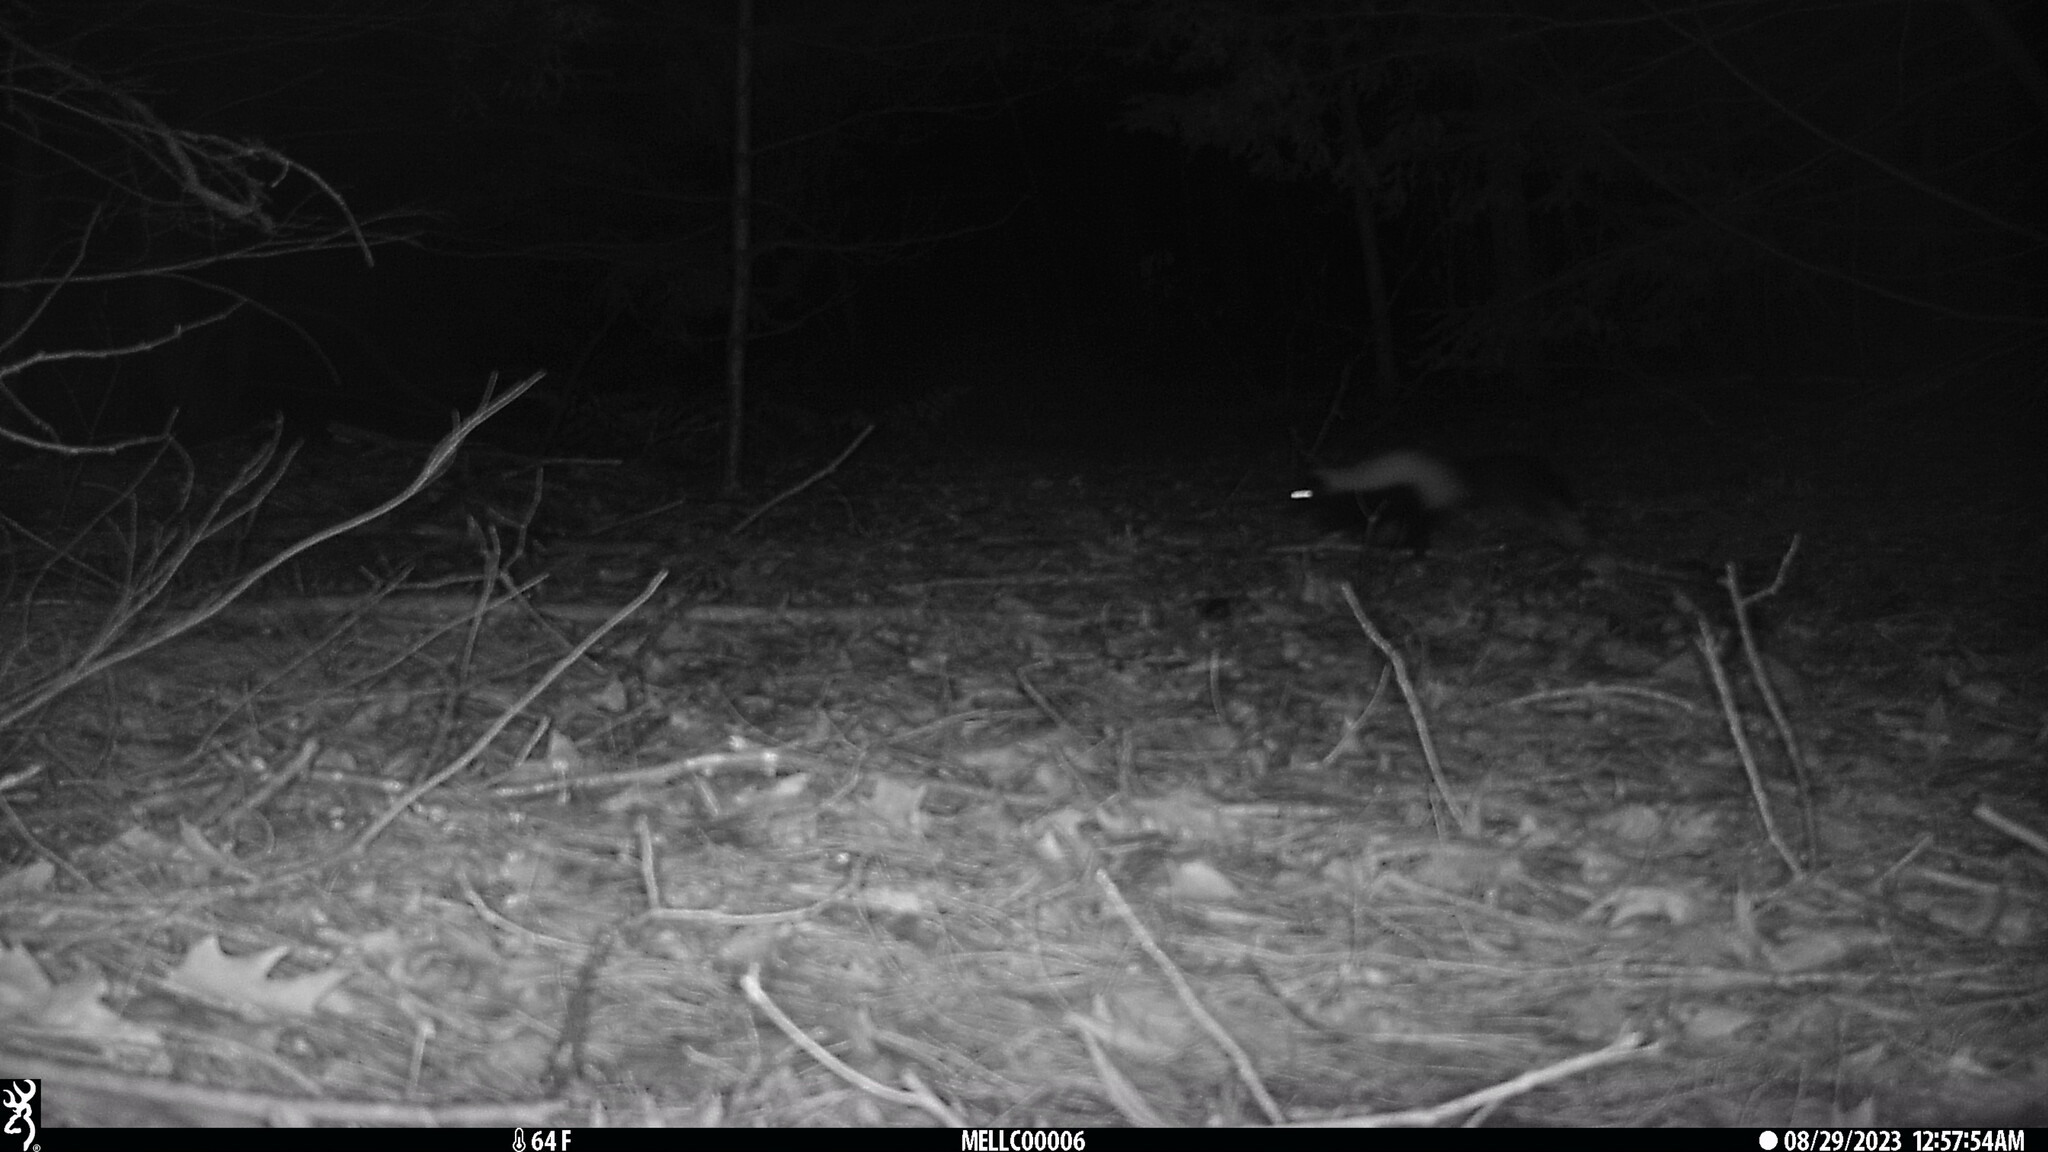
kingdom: Animalia
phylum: Chordata
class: Mammalia
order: Carnivora
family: Mephitidae
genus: Mephitis
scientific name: Mephitis mephitis
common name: Striped skunk
